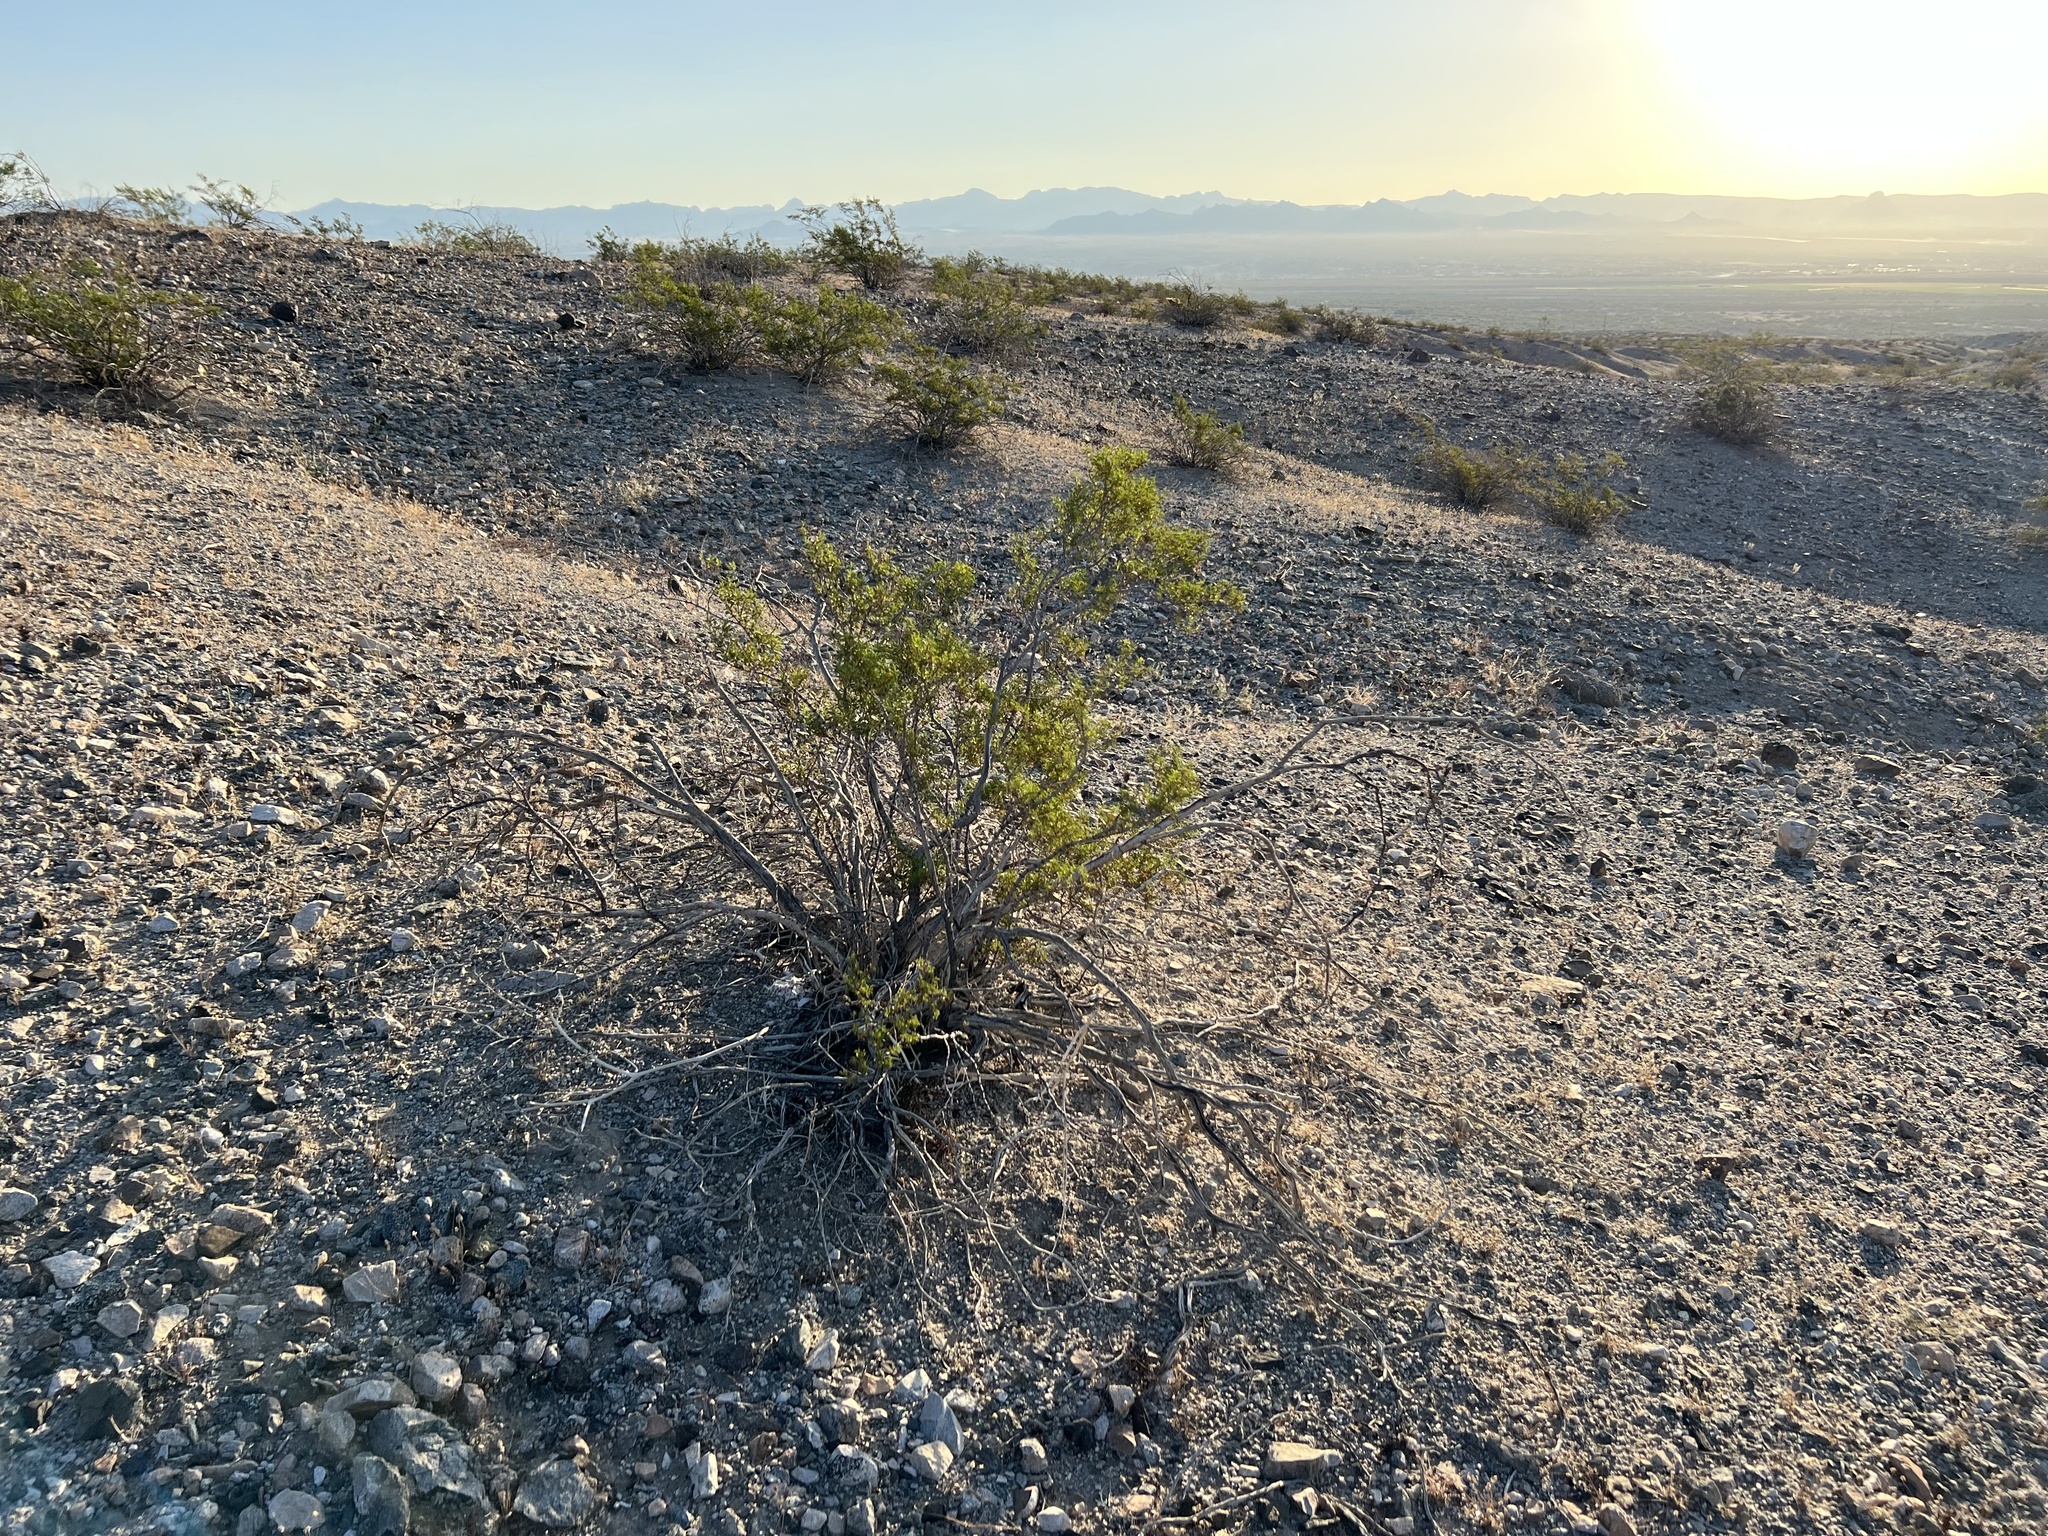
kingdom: Plantae
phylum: Tracheophyta
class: Magnoliopsida
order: Zygophyllales
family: Zygophyllaceae
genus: Larrea
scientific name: Larrea tridentata
